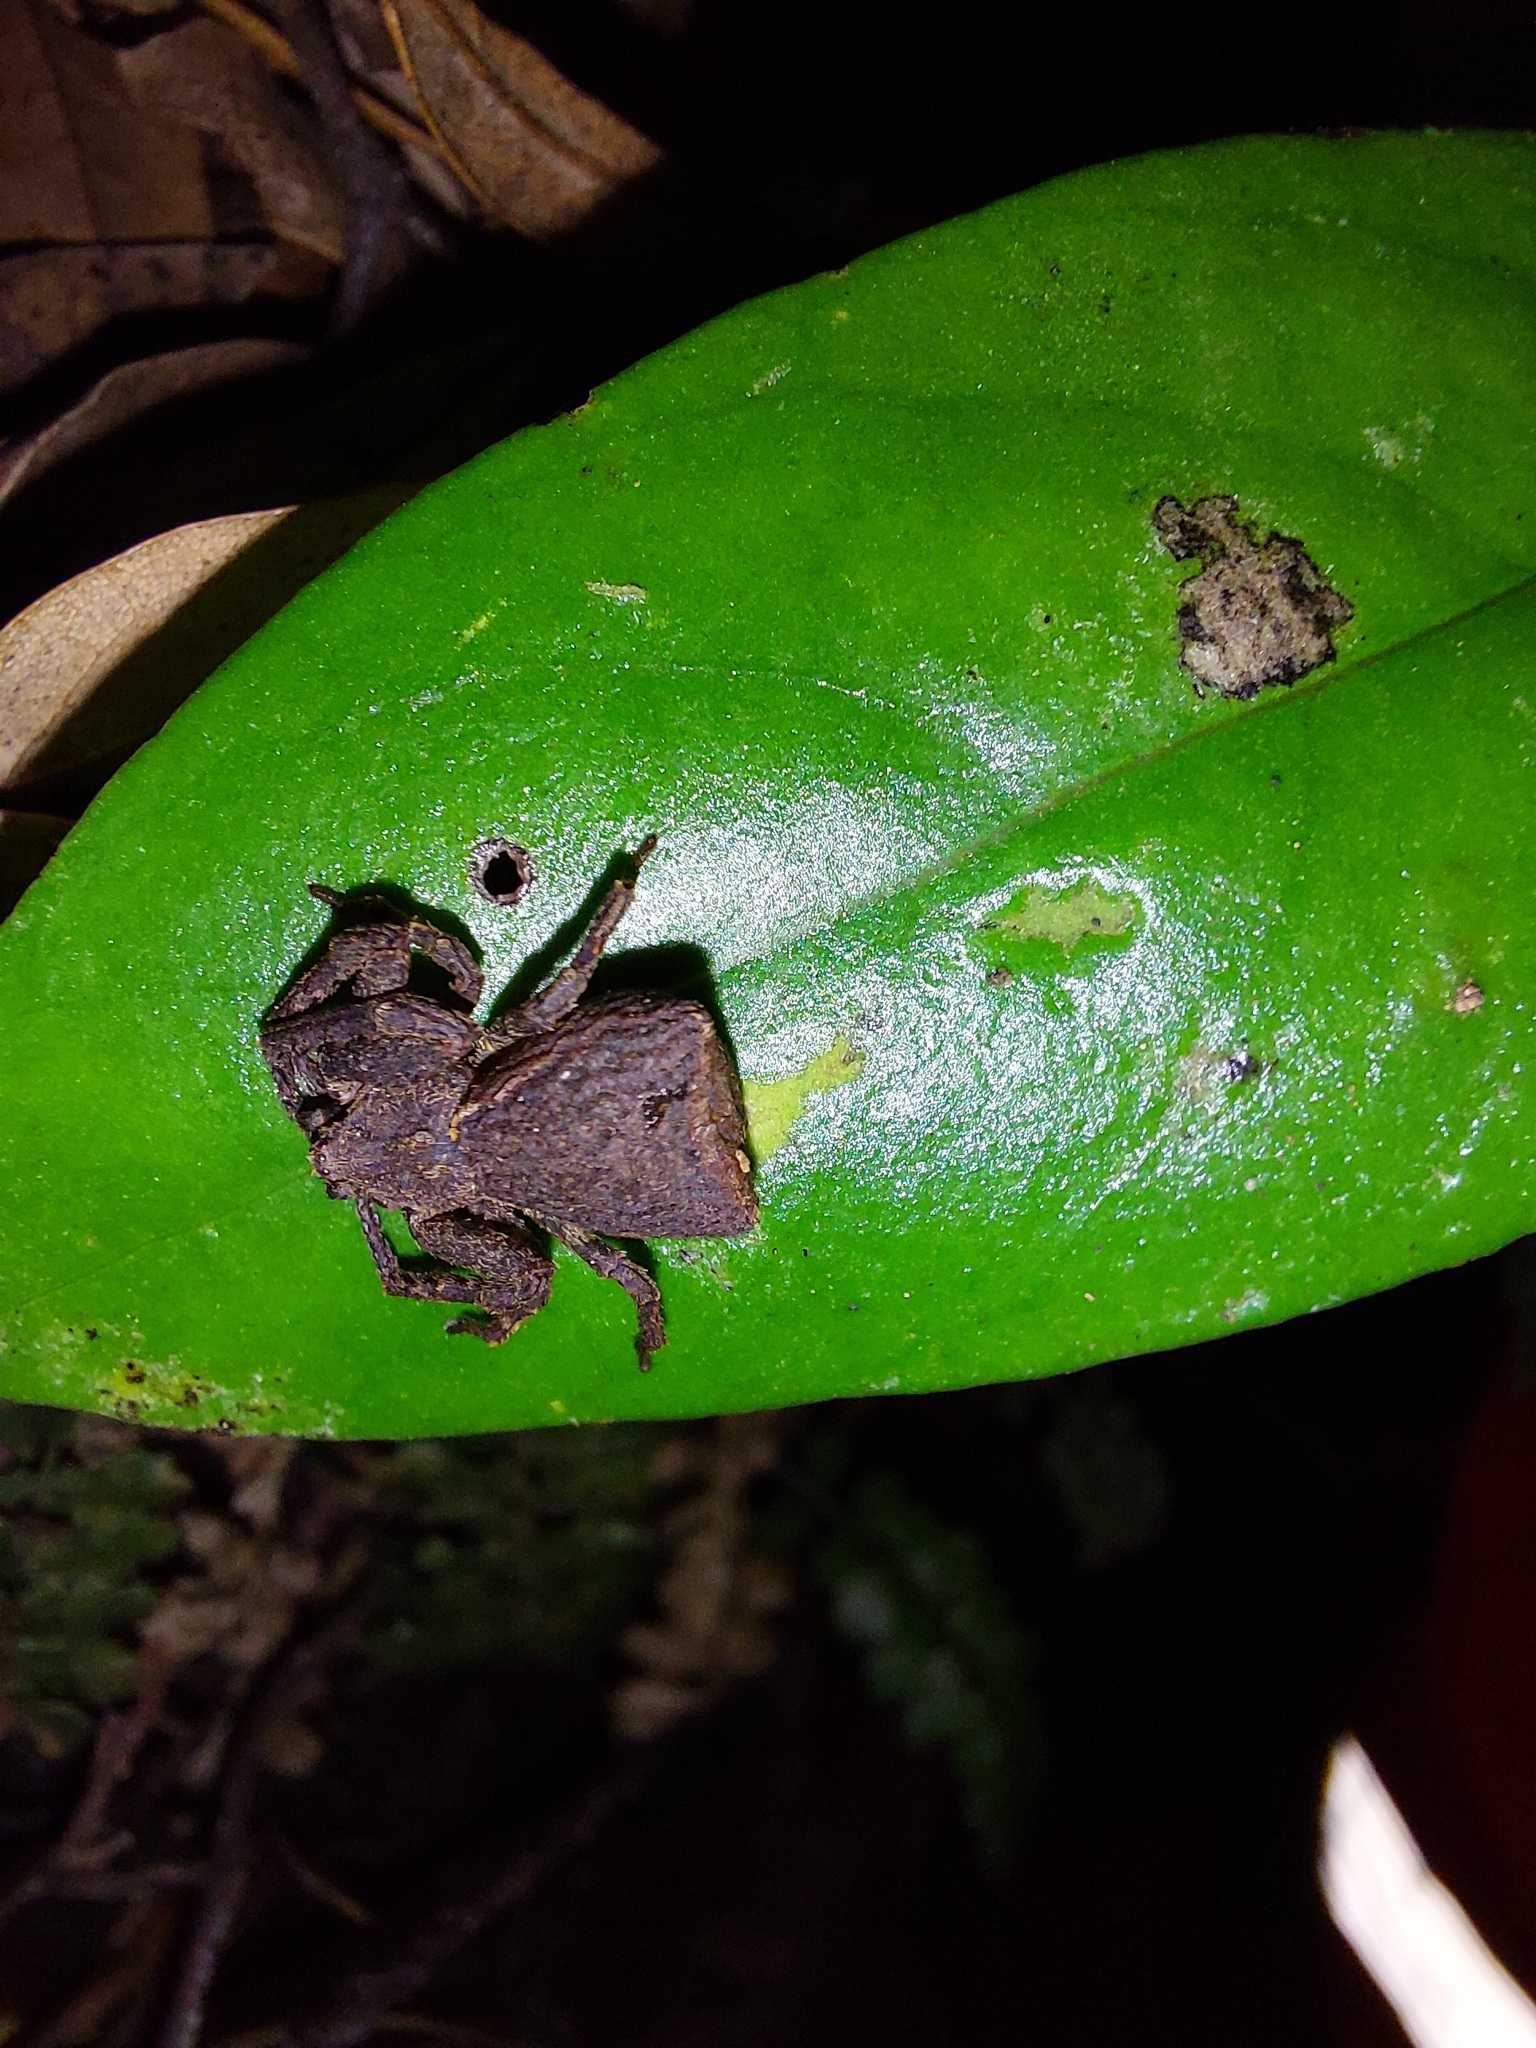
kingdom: Animalia
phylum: Arthropoda
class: Arachnida
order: Araneae
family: Thomisidae
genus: Sidymella
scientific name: Sidymella angularis
